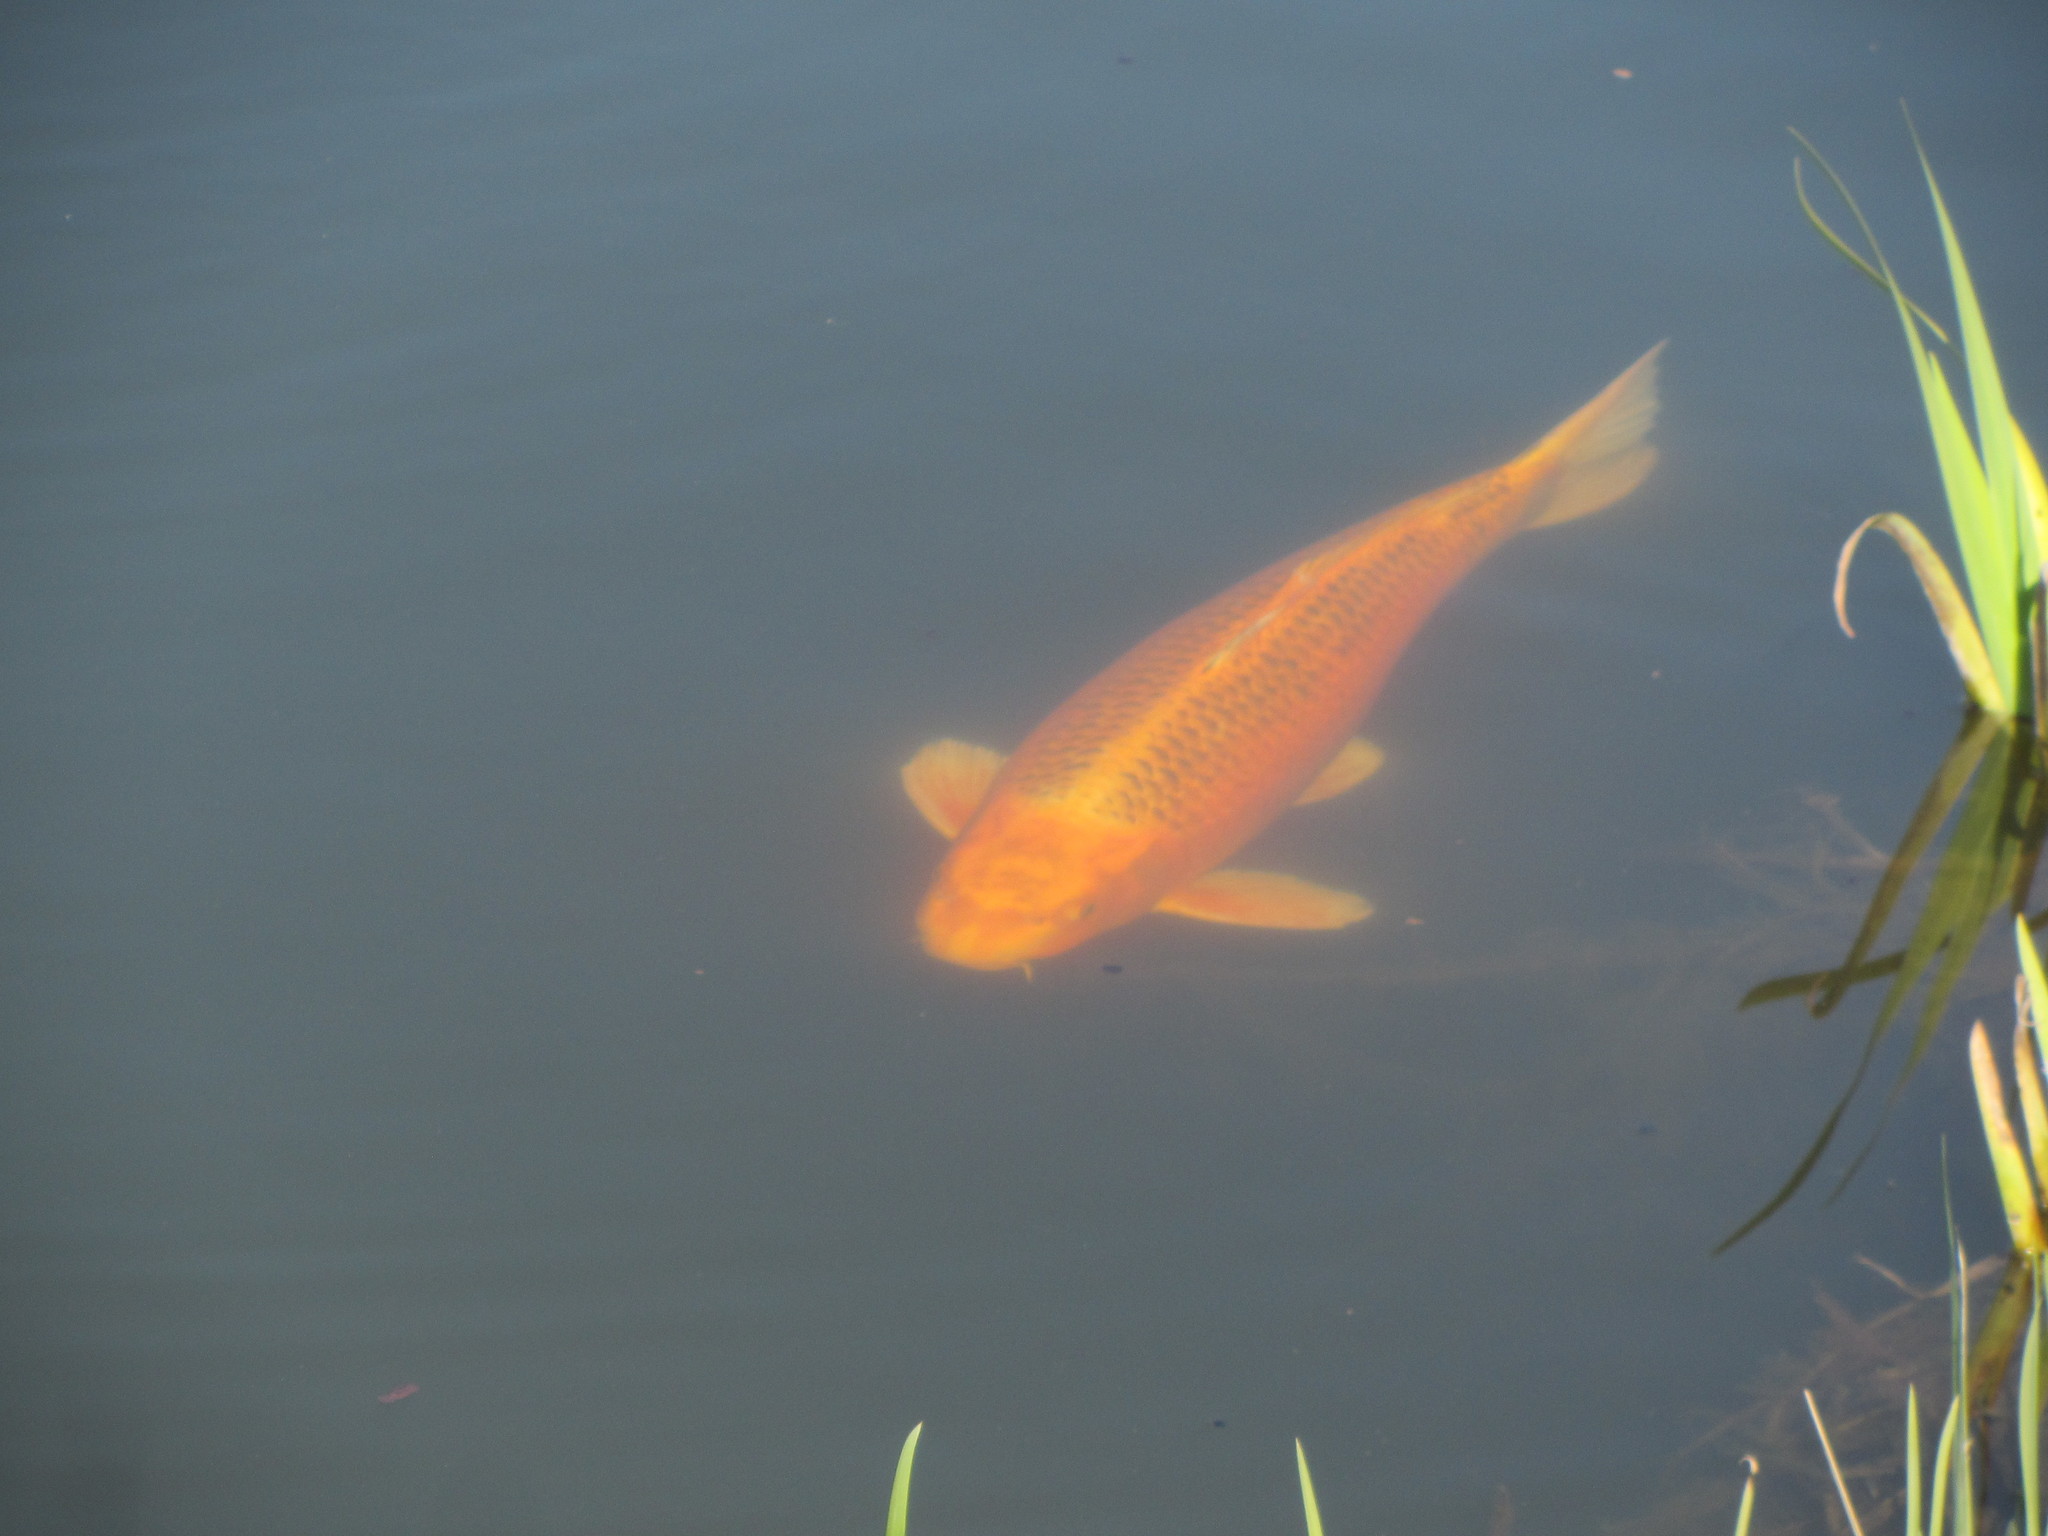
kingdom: Animalia
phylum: Chordata
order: Cypriniformes
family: Cyprinidae
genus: Cyprinus
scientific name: Cyprinus rubrofuscus
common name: Koi
